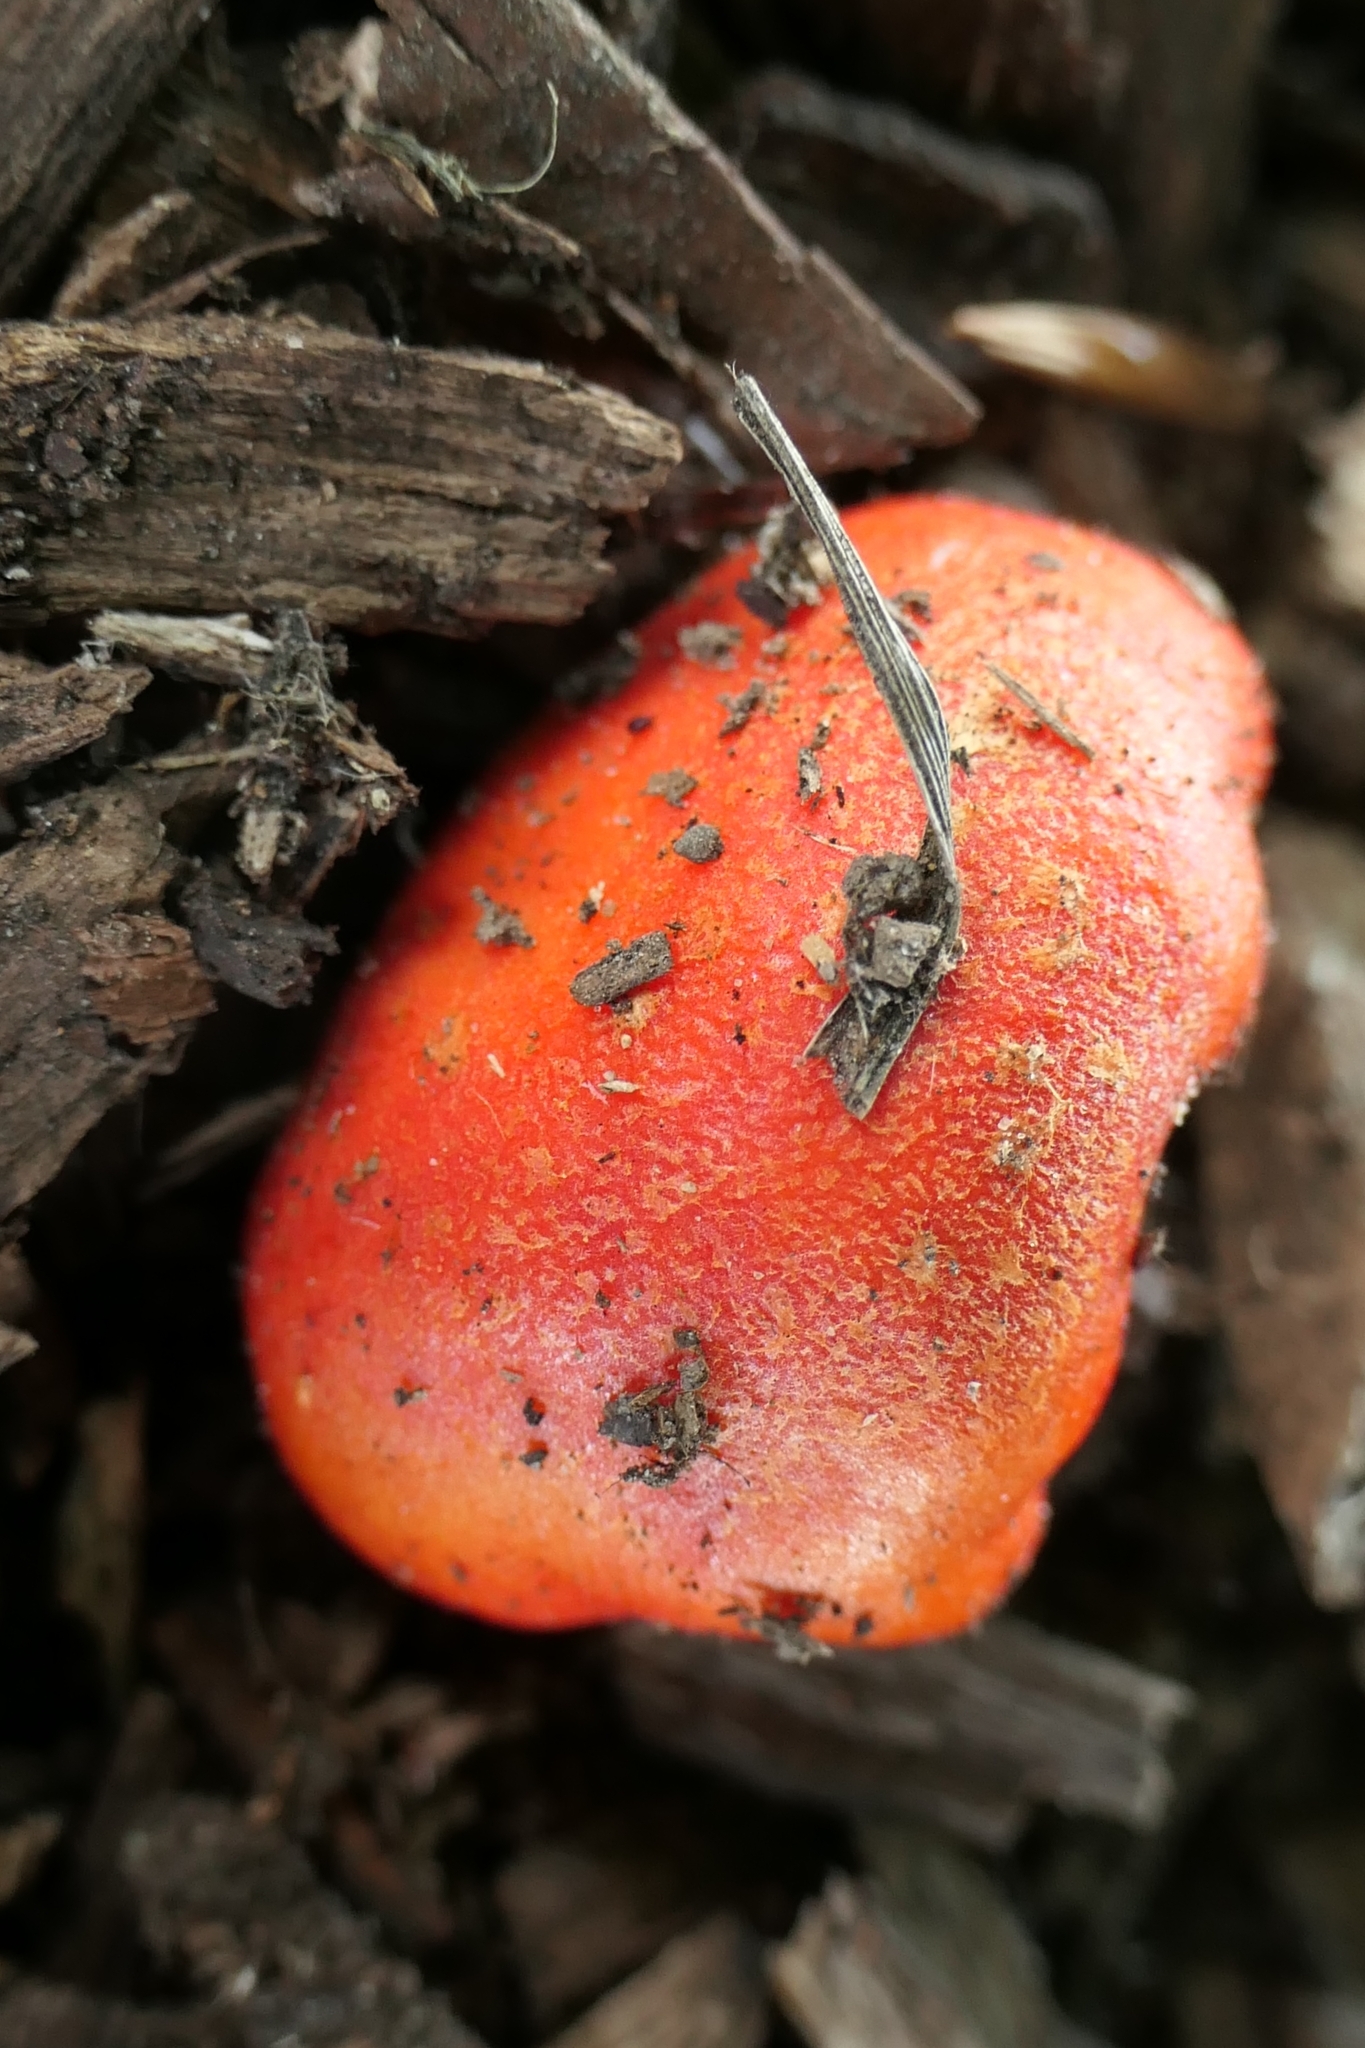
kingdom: Fungi
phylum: Basidiomycota
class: Agaricomycetes
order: Agaricales
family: Strophariaceae
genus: Leratiomyces
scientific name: Leratiomyces erythrocephalus
